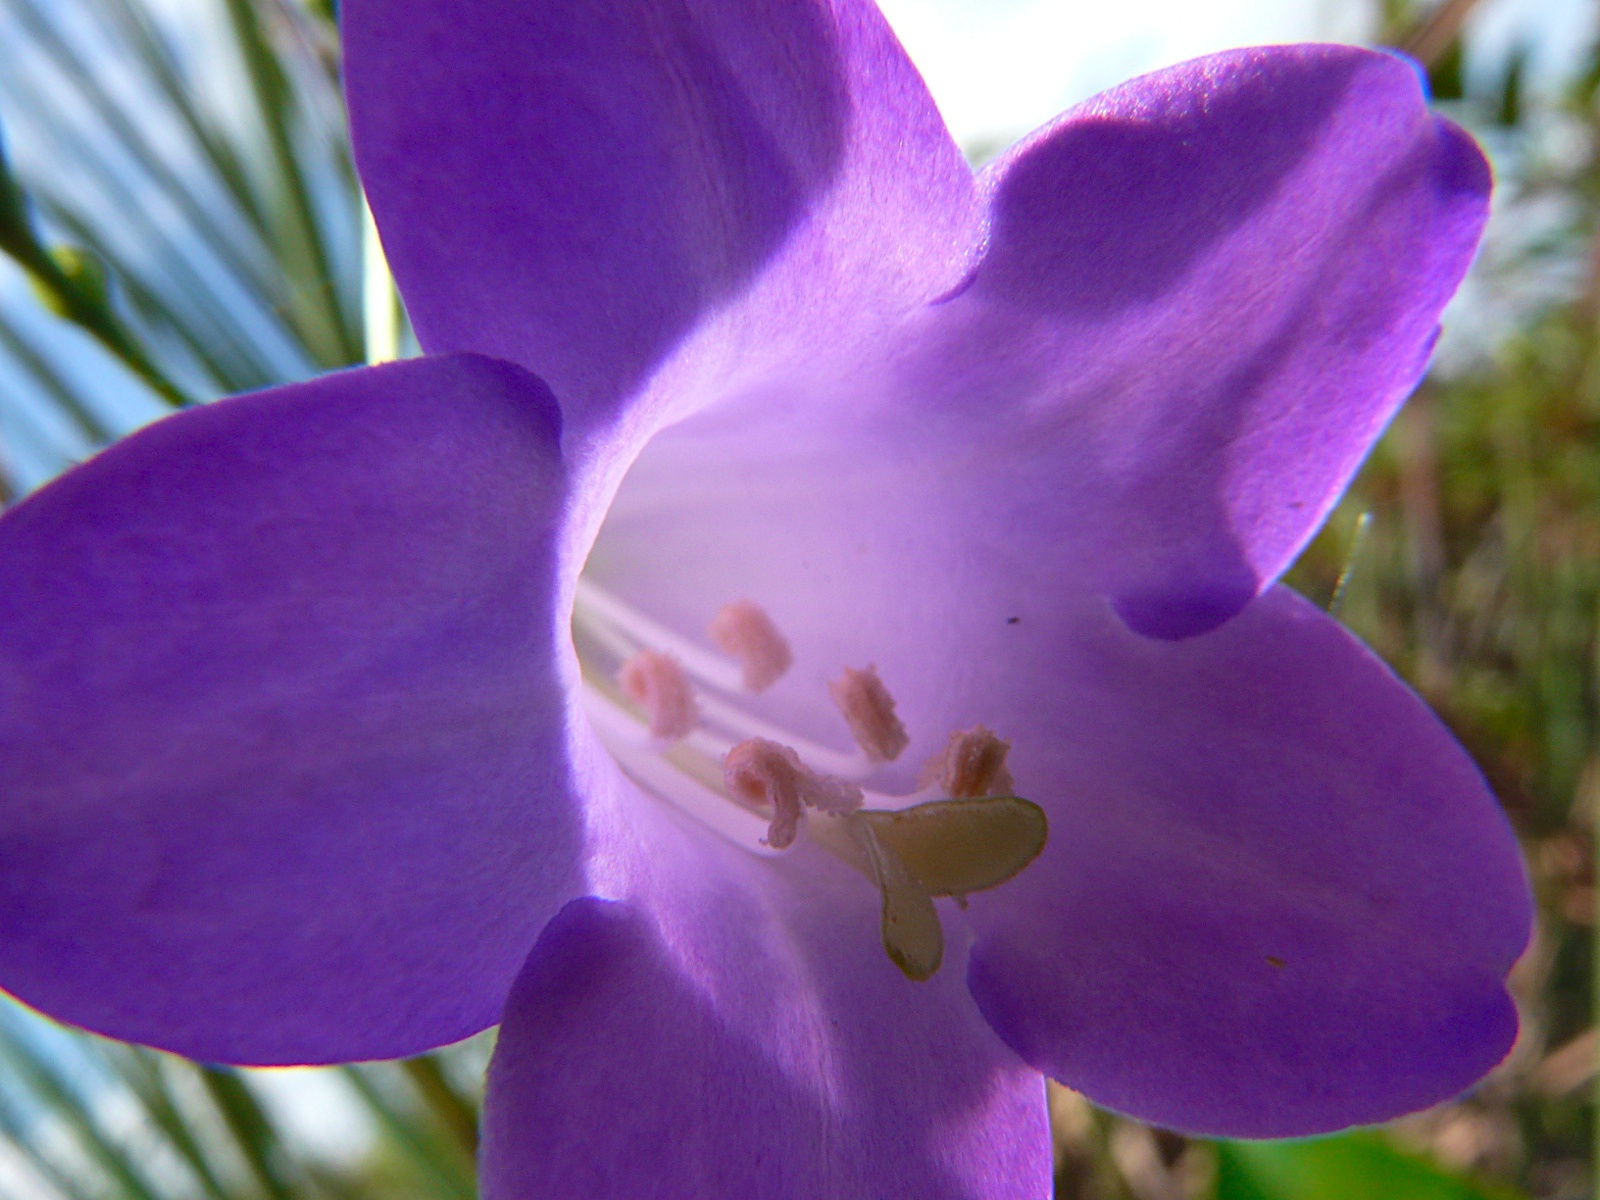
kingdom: Plantae
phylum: Tracheophyta
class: Magnoliopsida
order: Gentianales
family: Gentianaceae
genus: Chelonanthus
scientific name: Chelonanthus purpurascens
